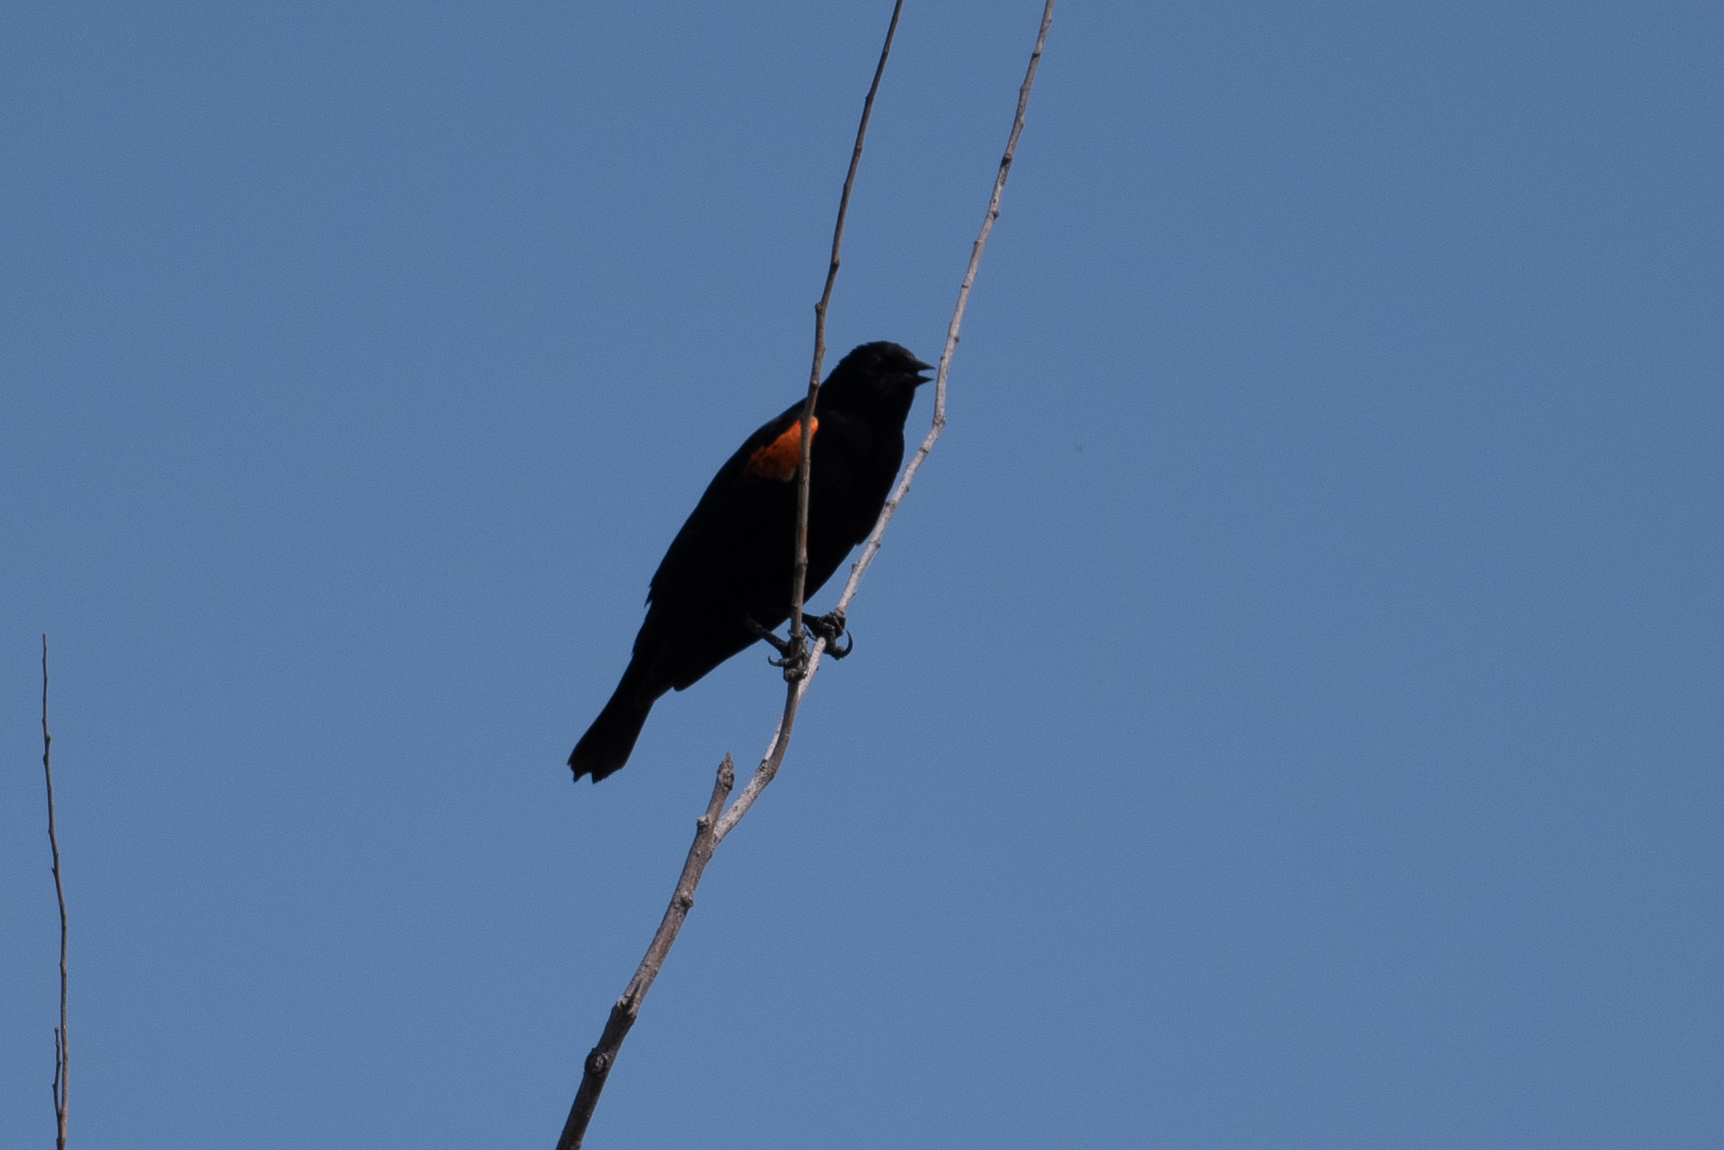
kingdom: Animalia
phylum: Chordata
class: Aves
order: Passeriformes
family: Icteridae
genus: Agelaius
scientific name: Agelaius phoeniceus
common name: Red-winged blackbird
